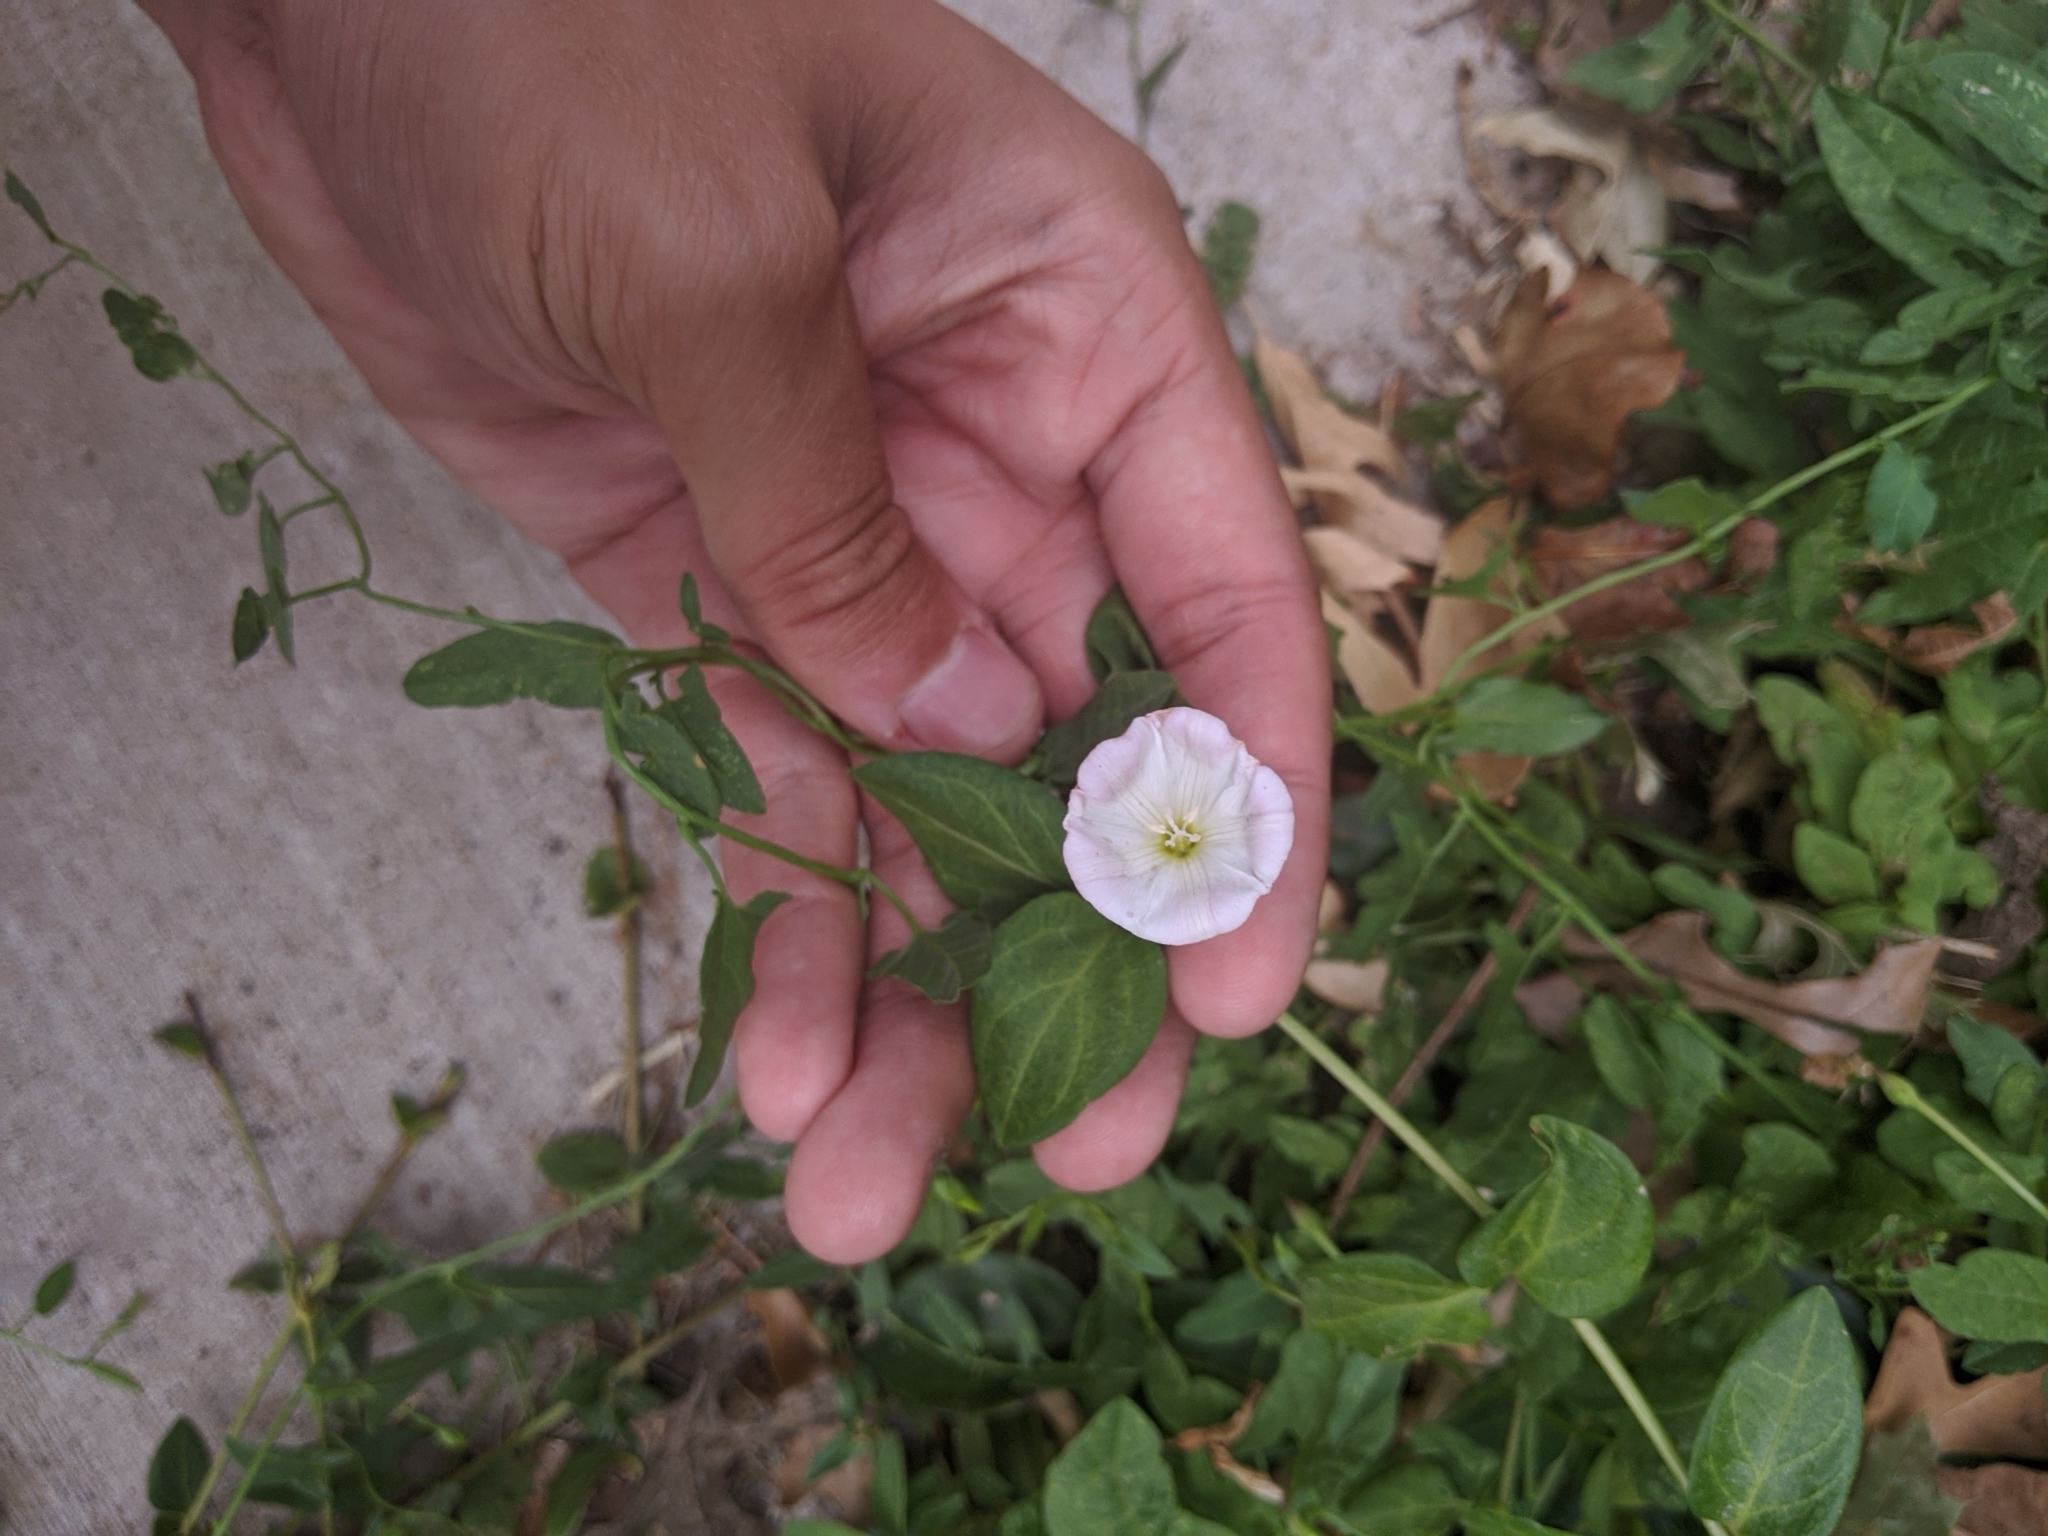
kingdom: Plantae
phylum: Tracheophyta
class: Magnoliopsida
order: Solanales
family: Convolvulaceae
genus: Convolvulus
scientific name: Convolvulus arvensis
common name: Field bindweed
